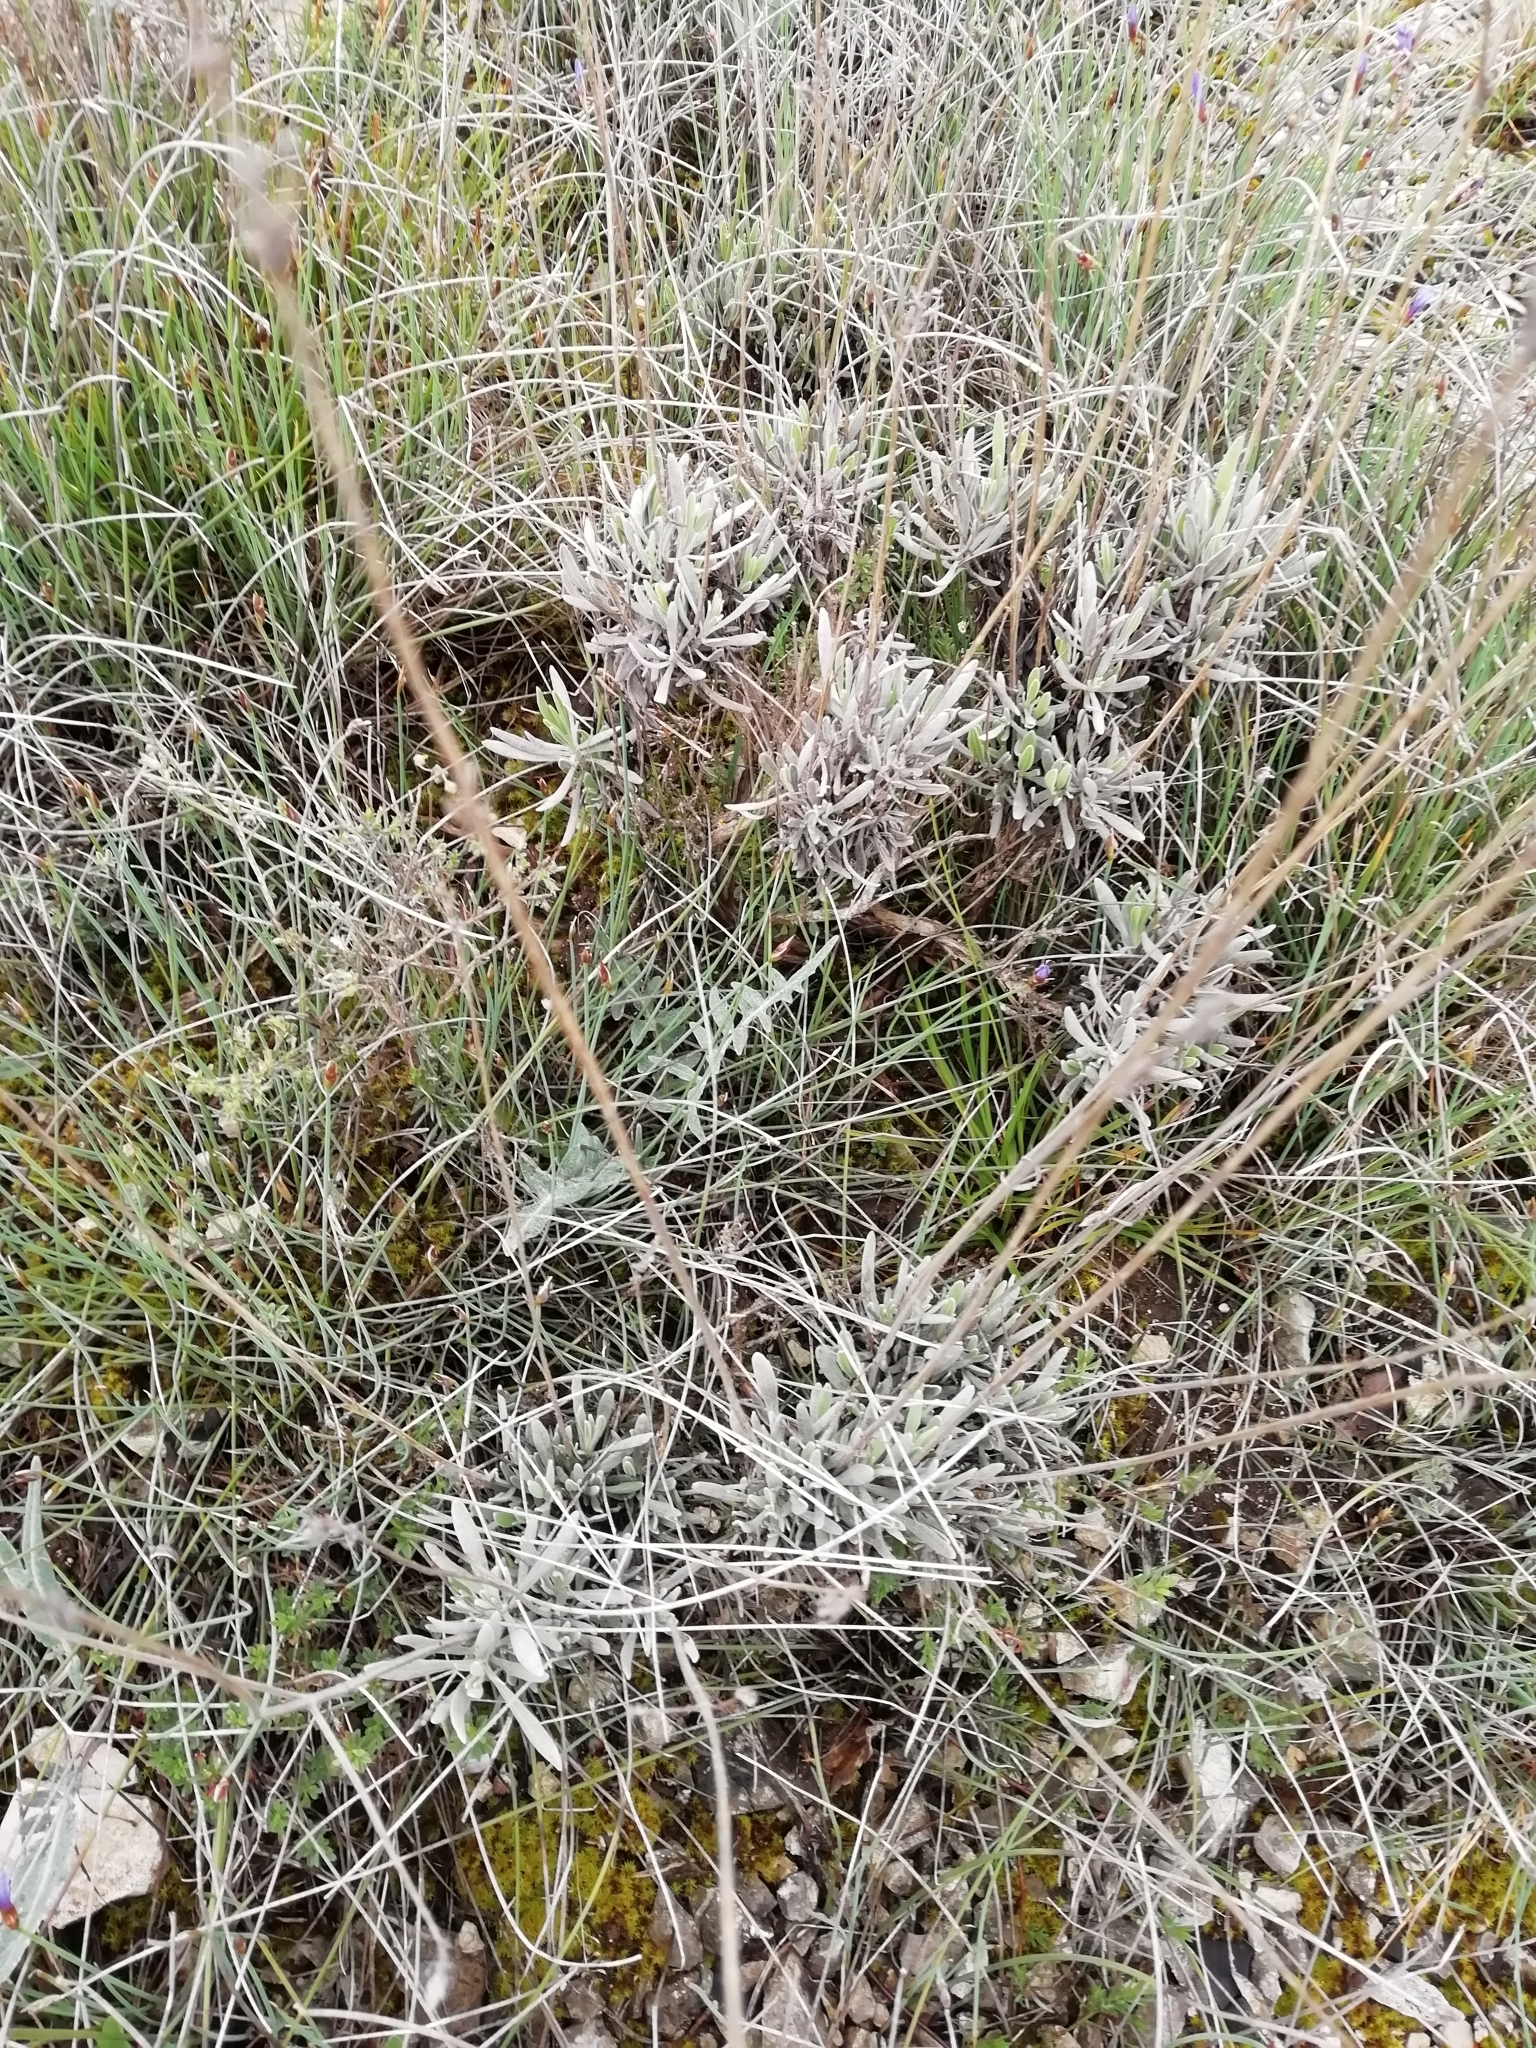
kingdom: Plantae
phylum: Tracheophyta
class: Magnoliopsida
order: Lamiales
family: Lamiaceae
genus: Lavandula
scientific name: Lavandula latifolia
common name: Spike lavendar
